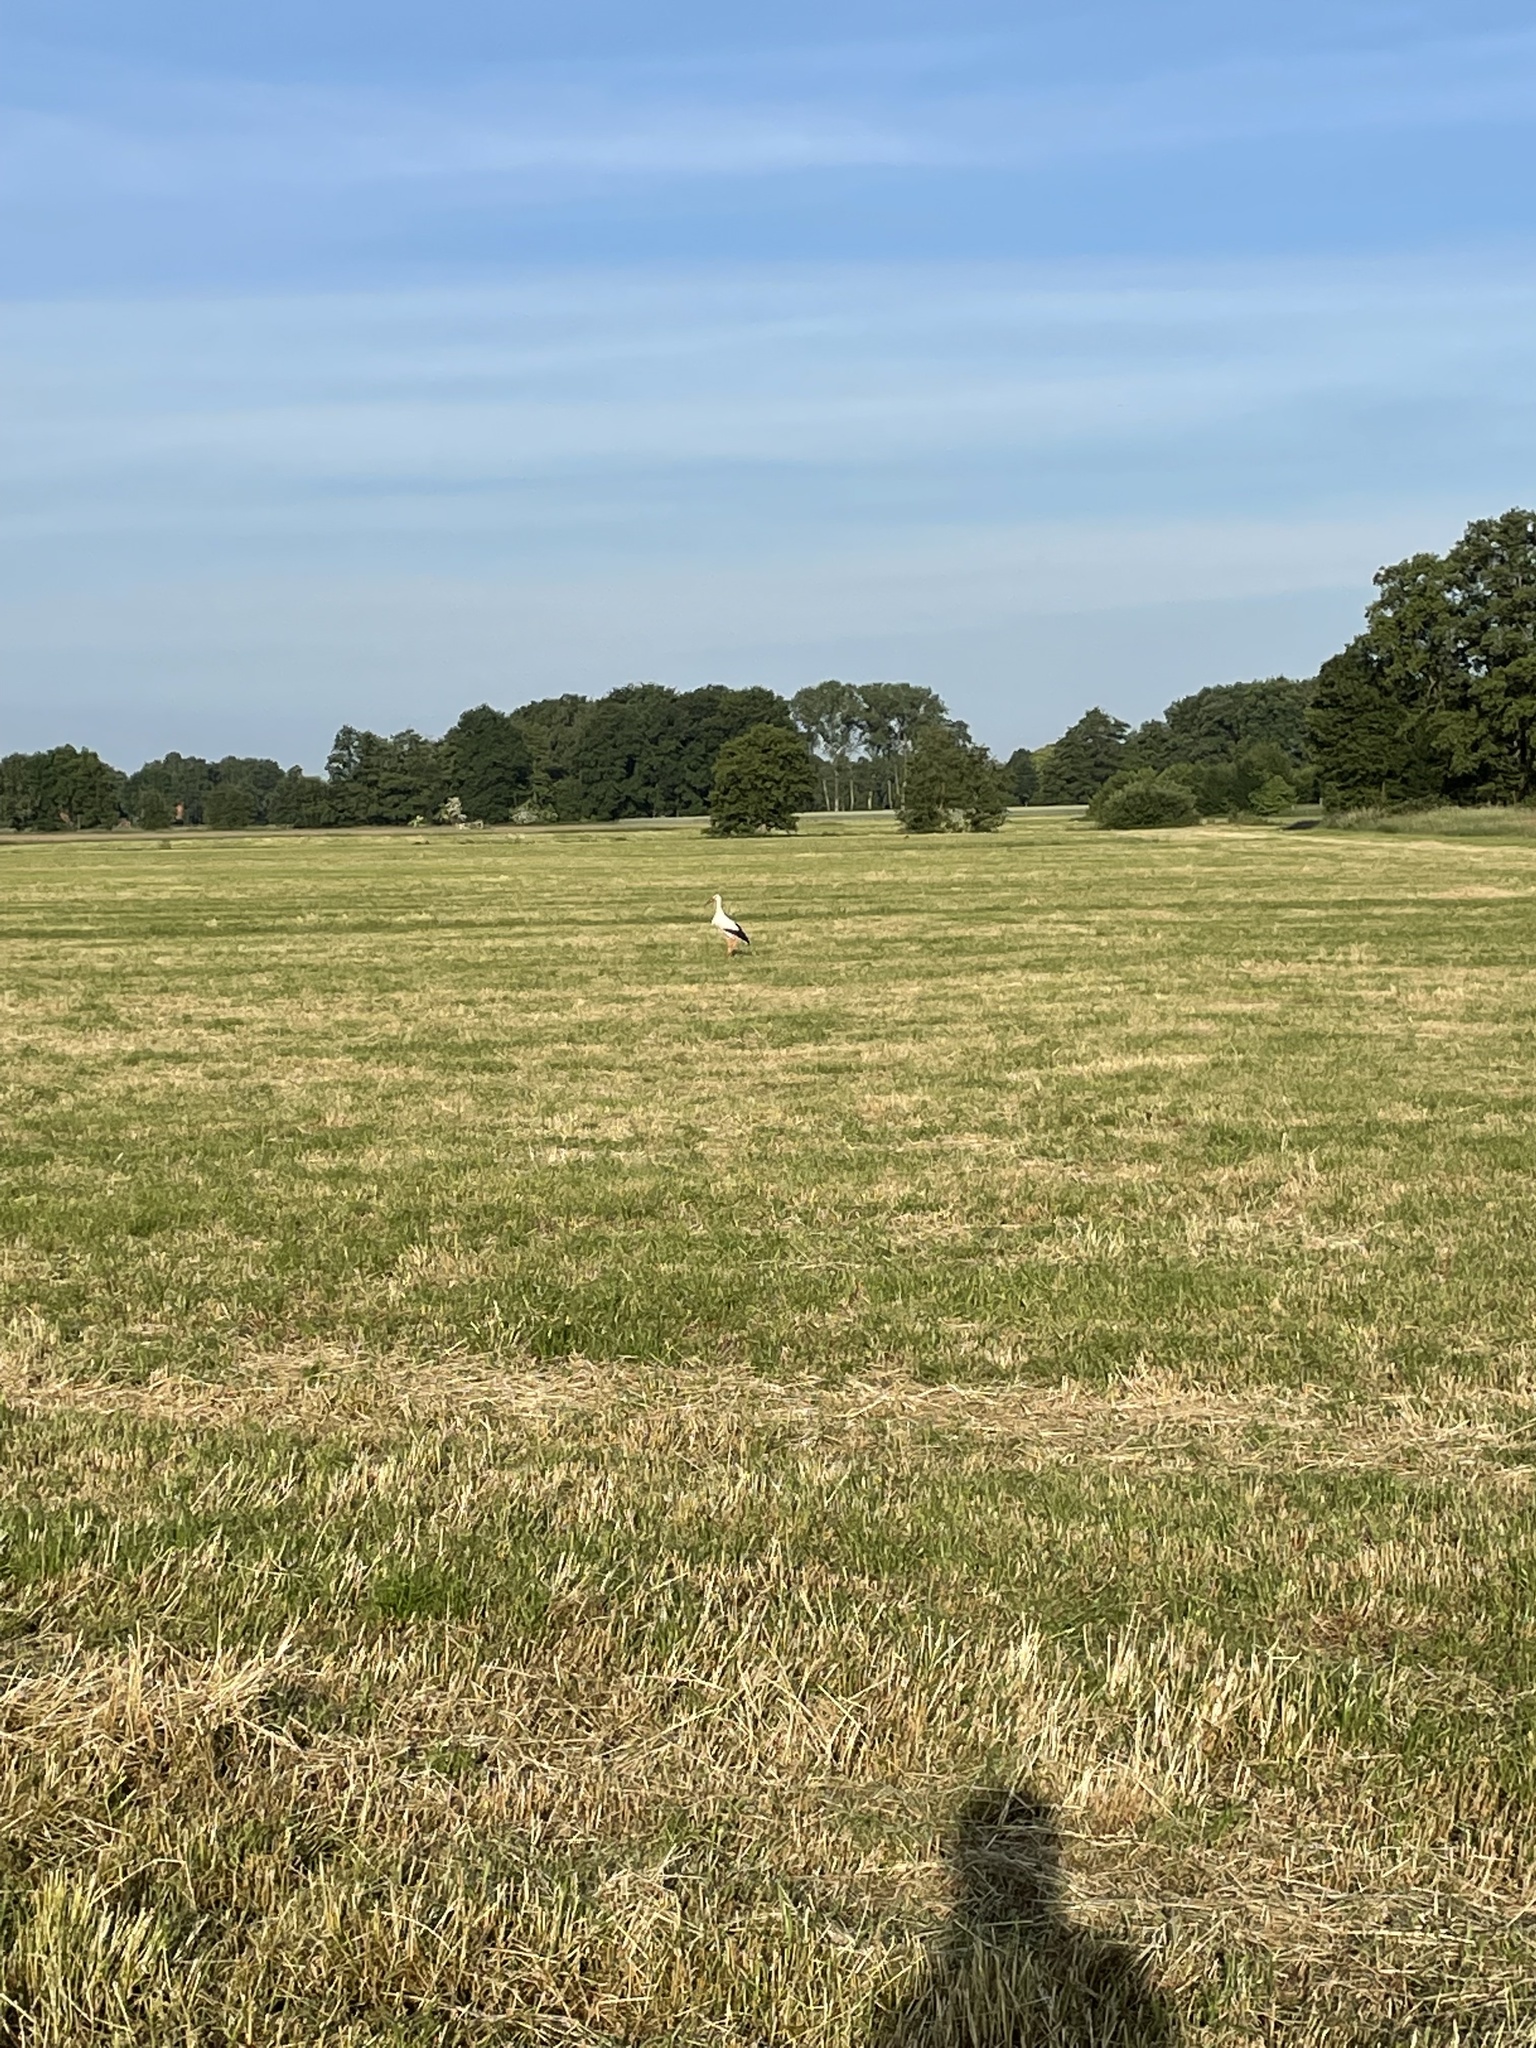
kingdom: Animalia
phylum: Chordata
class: Aves
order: Ciconiiformes
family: Ciconiidae
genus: Ciconia
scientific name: Ciconia ciconia
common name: White stork
